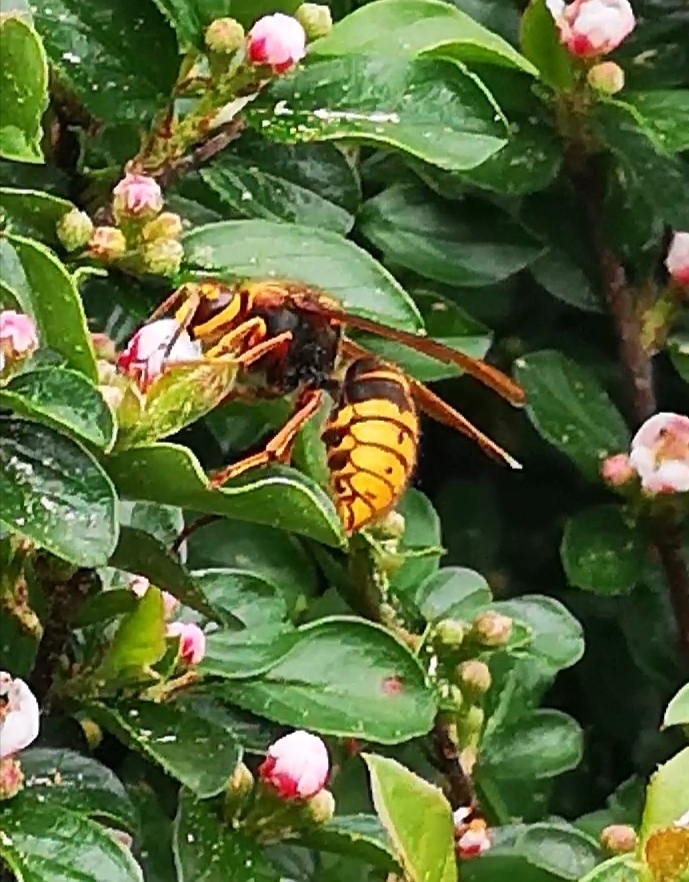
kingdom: Animalia
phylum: Arthropoda
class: Insecta
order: Hymenoptera
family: Vespidae
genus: Dolichovespula
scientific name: Dolichovespula media
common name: Median wasp
